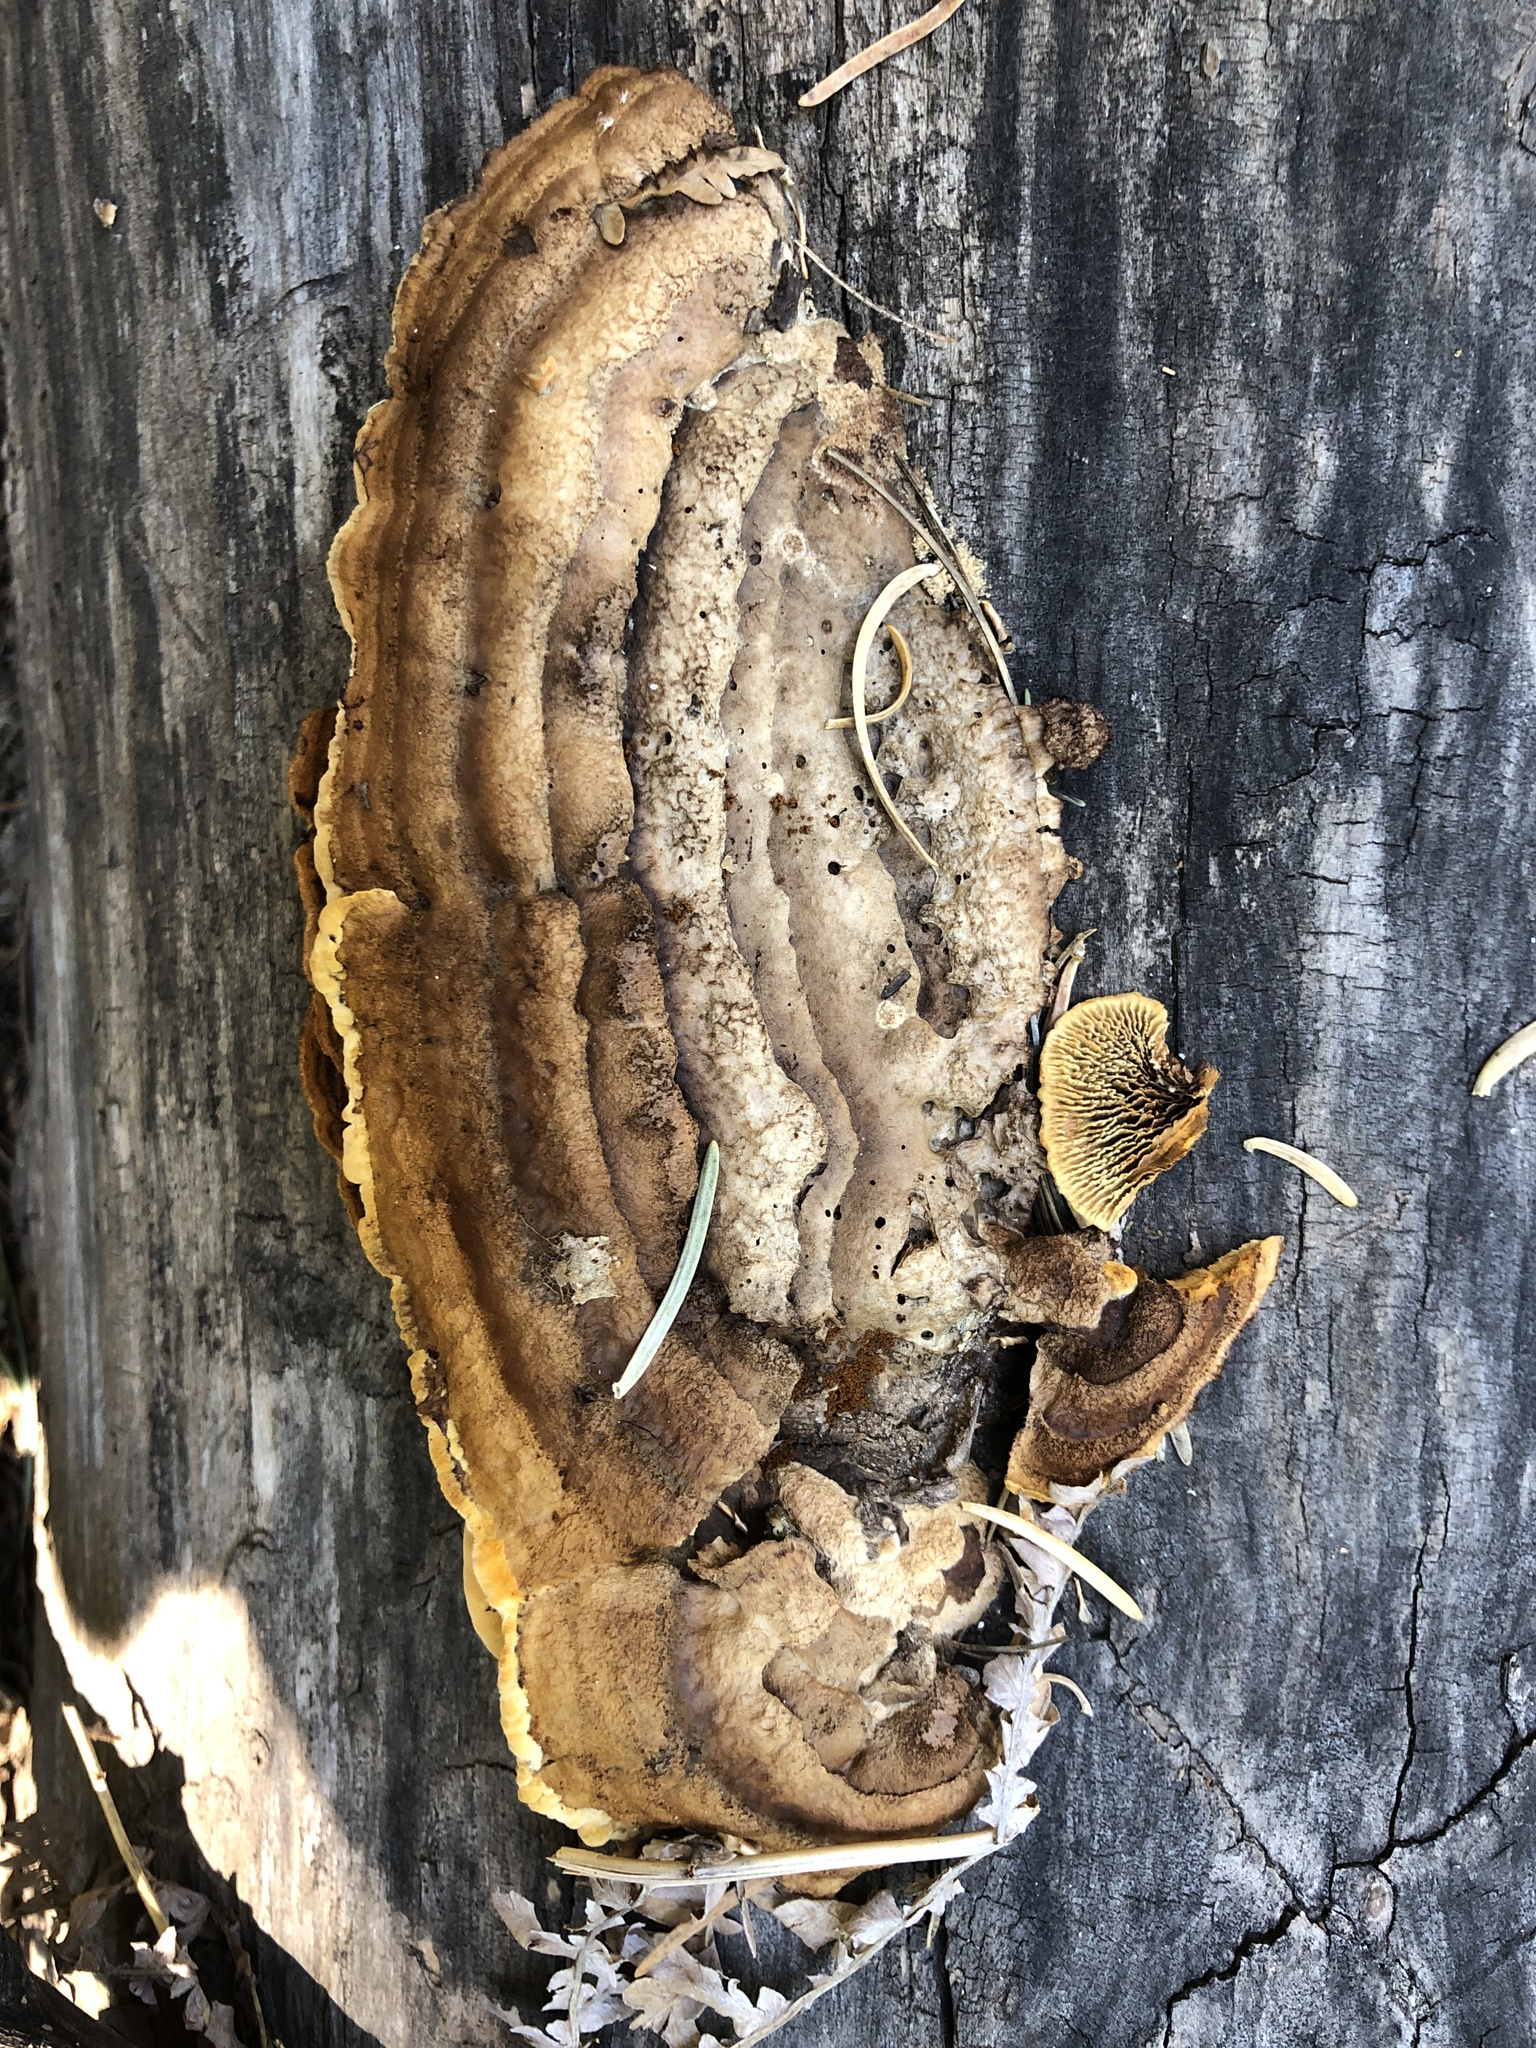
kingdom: Fungi
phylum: Basidiomycota
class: Agaricomycetes
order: Gloeophyllales
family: Gloeophyllaceae
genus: Gloeophyllum
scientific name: Gloeophyllum sepiarium
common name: Conifer mazegill
